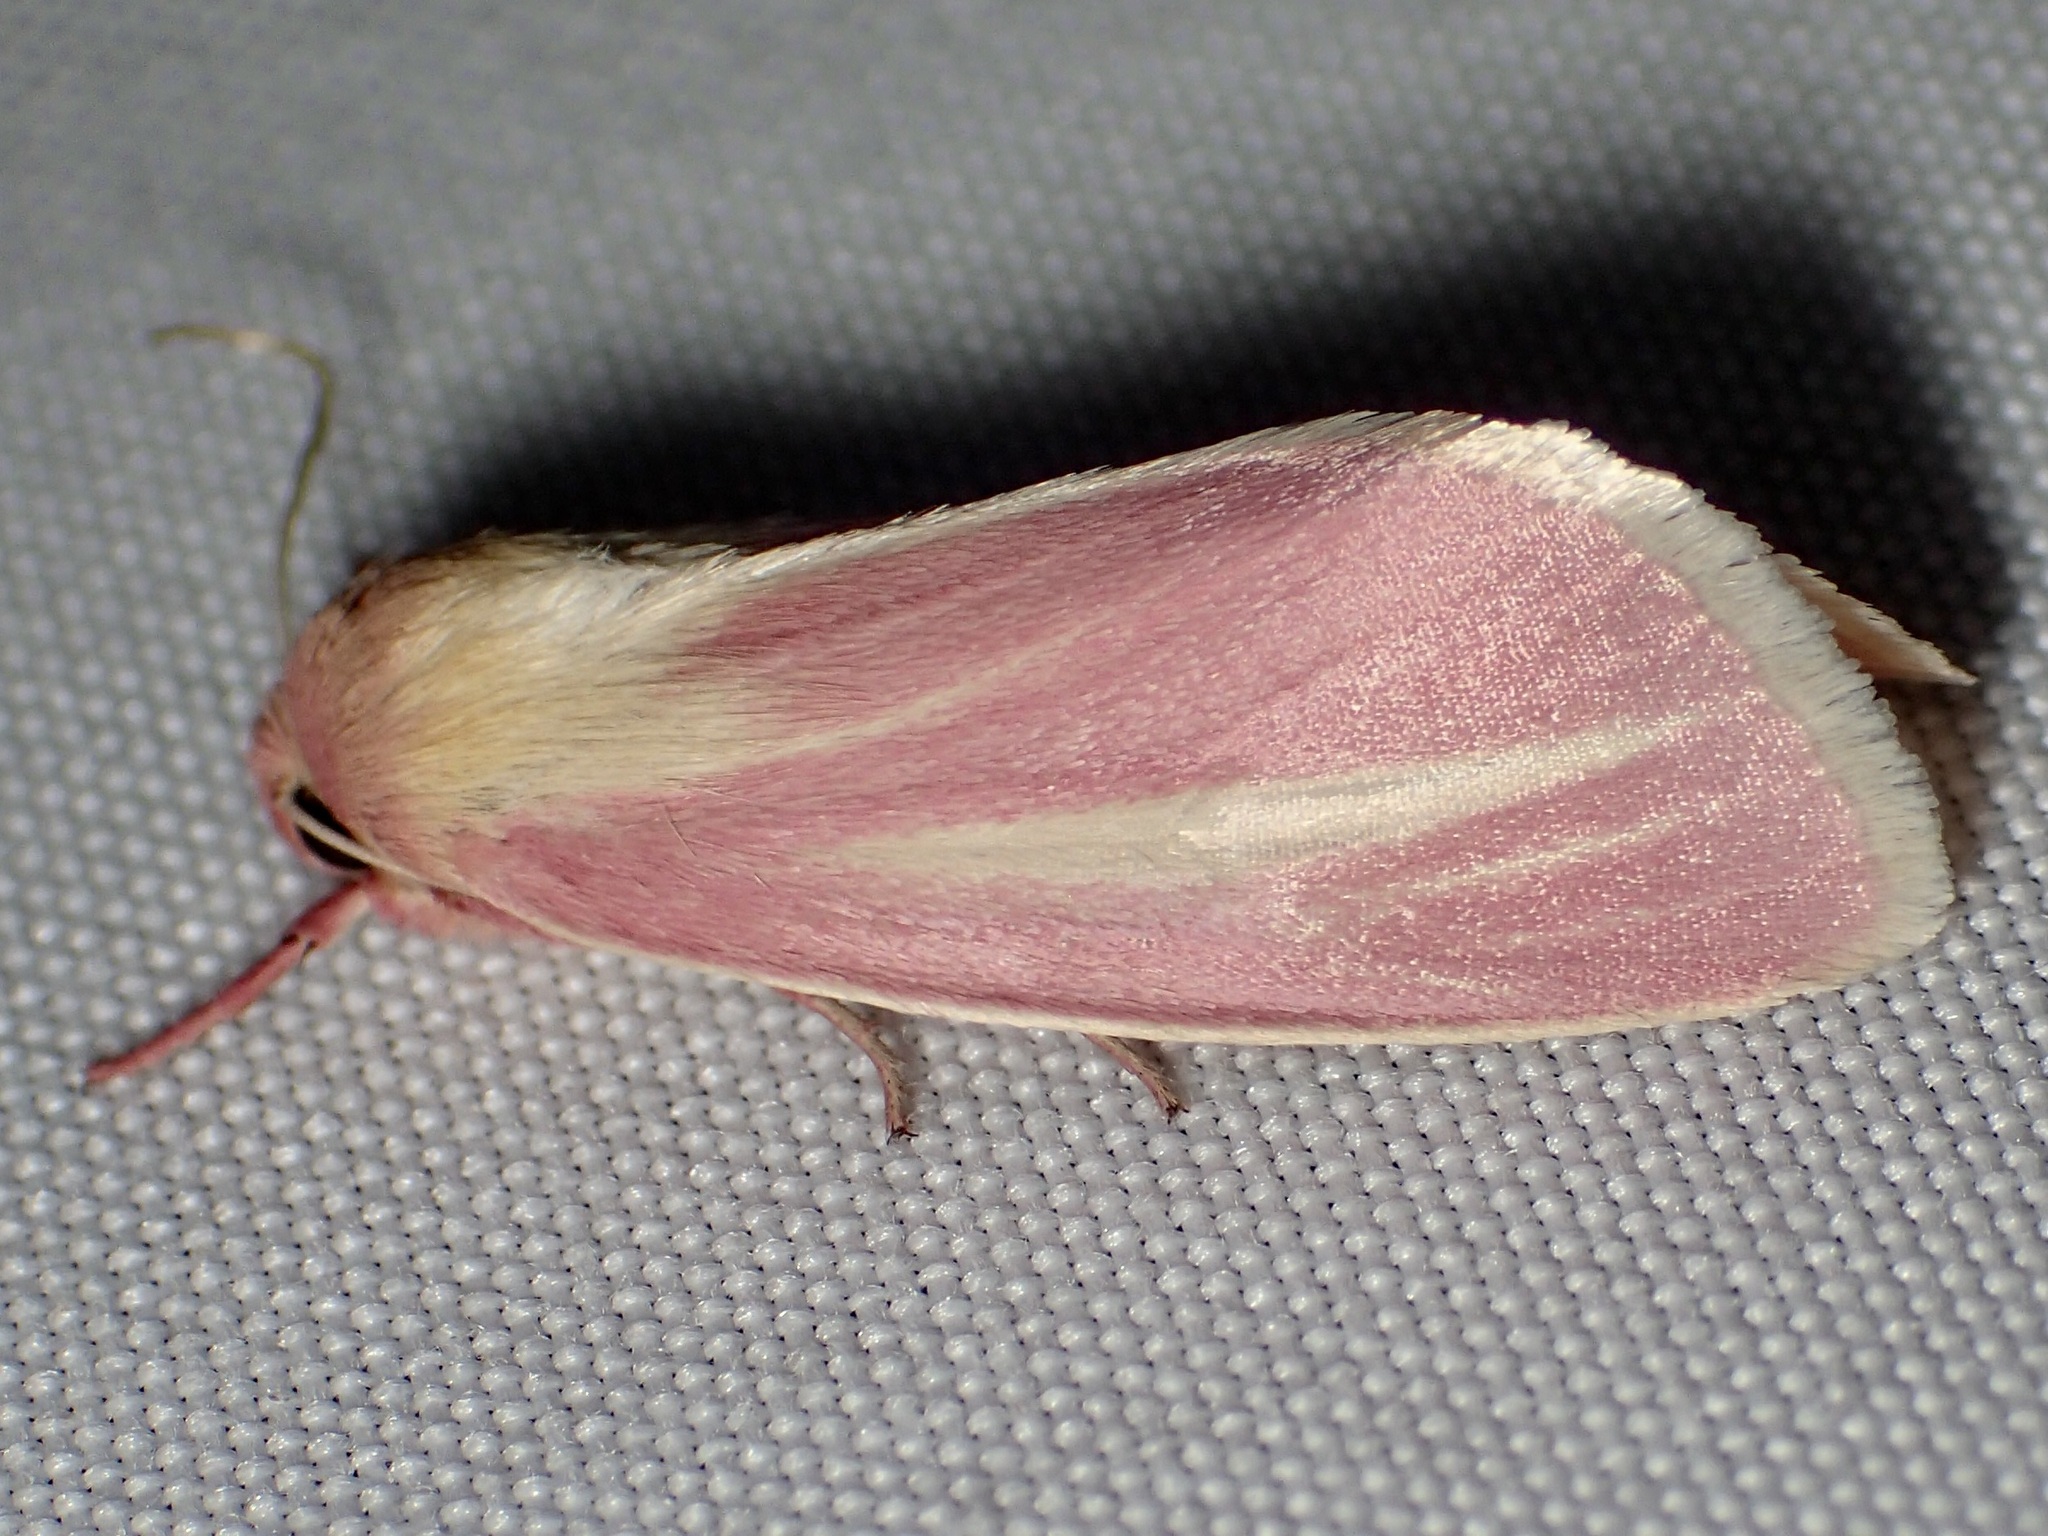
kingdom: Animalia
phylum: Arthropoda
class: Insecta
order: Lepidoptera
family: Noctuidae
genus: Heliocheilus
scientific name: Heliocheilus julia
